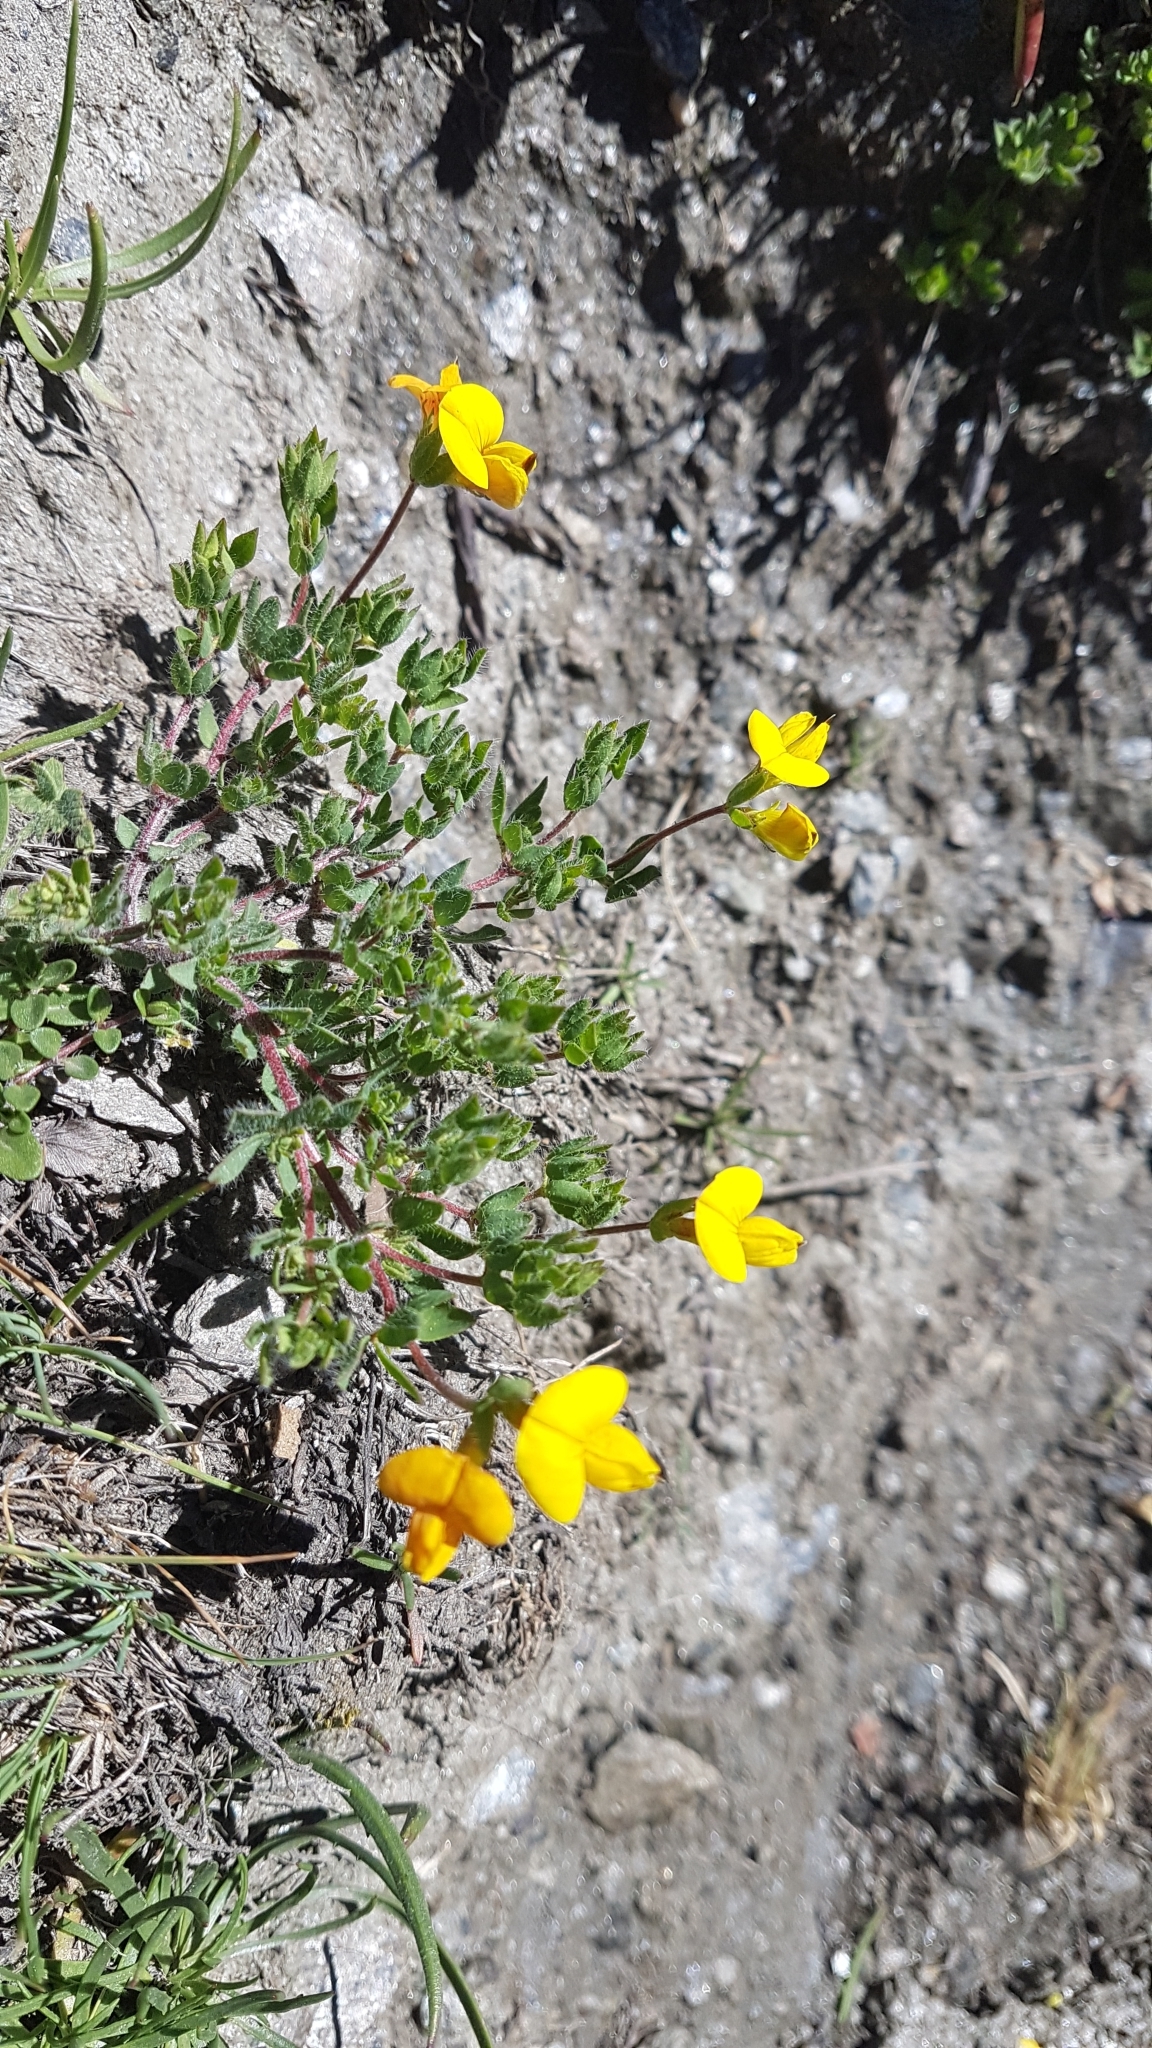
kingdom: Plantae
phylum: Tracheophyta
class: Magnoliopsida
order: Fabales
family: Fabaceae
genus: Lotus
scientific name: Lotus corniculatus
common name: Common bird's-foot-trefoil
